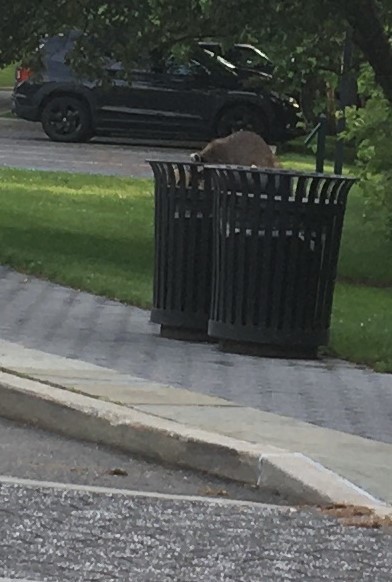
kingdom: Animalia
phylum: Chordata
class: Mammalia
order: Carnivora
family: Procyonidae
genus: Procyon
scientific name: Procyon lotor
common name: Raccoon
